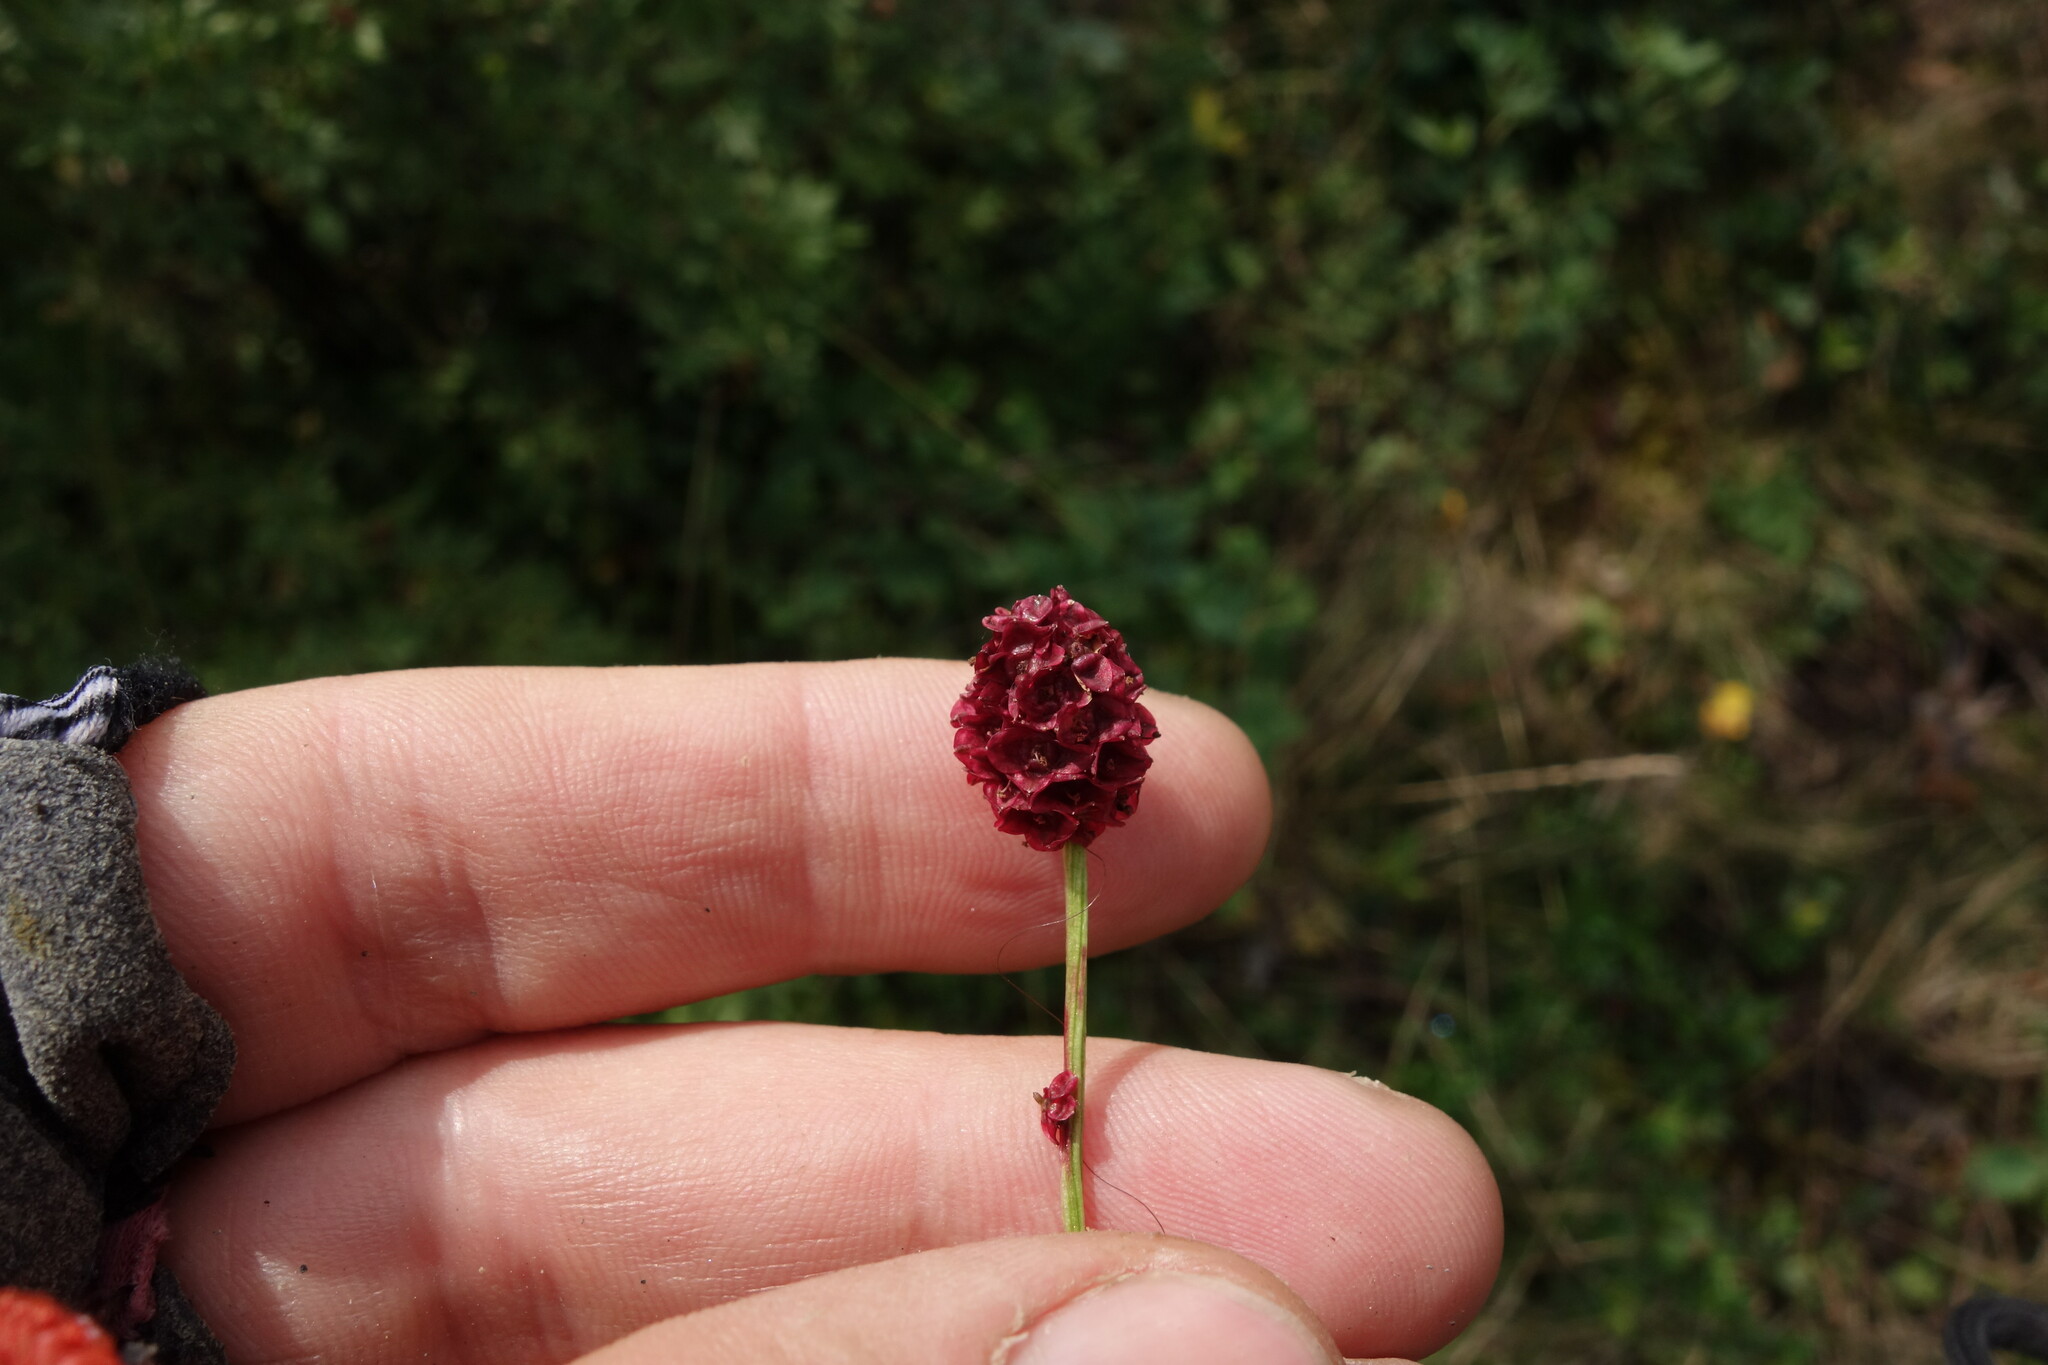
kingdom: Plantae
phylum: Tracheophyta
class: Magnoliopsida
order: Rosales
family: Rosaceae
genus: Sanguisorba
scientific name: Sanguisorba officinalis
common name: Great burnet
